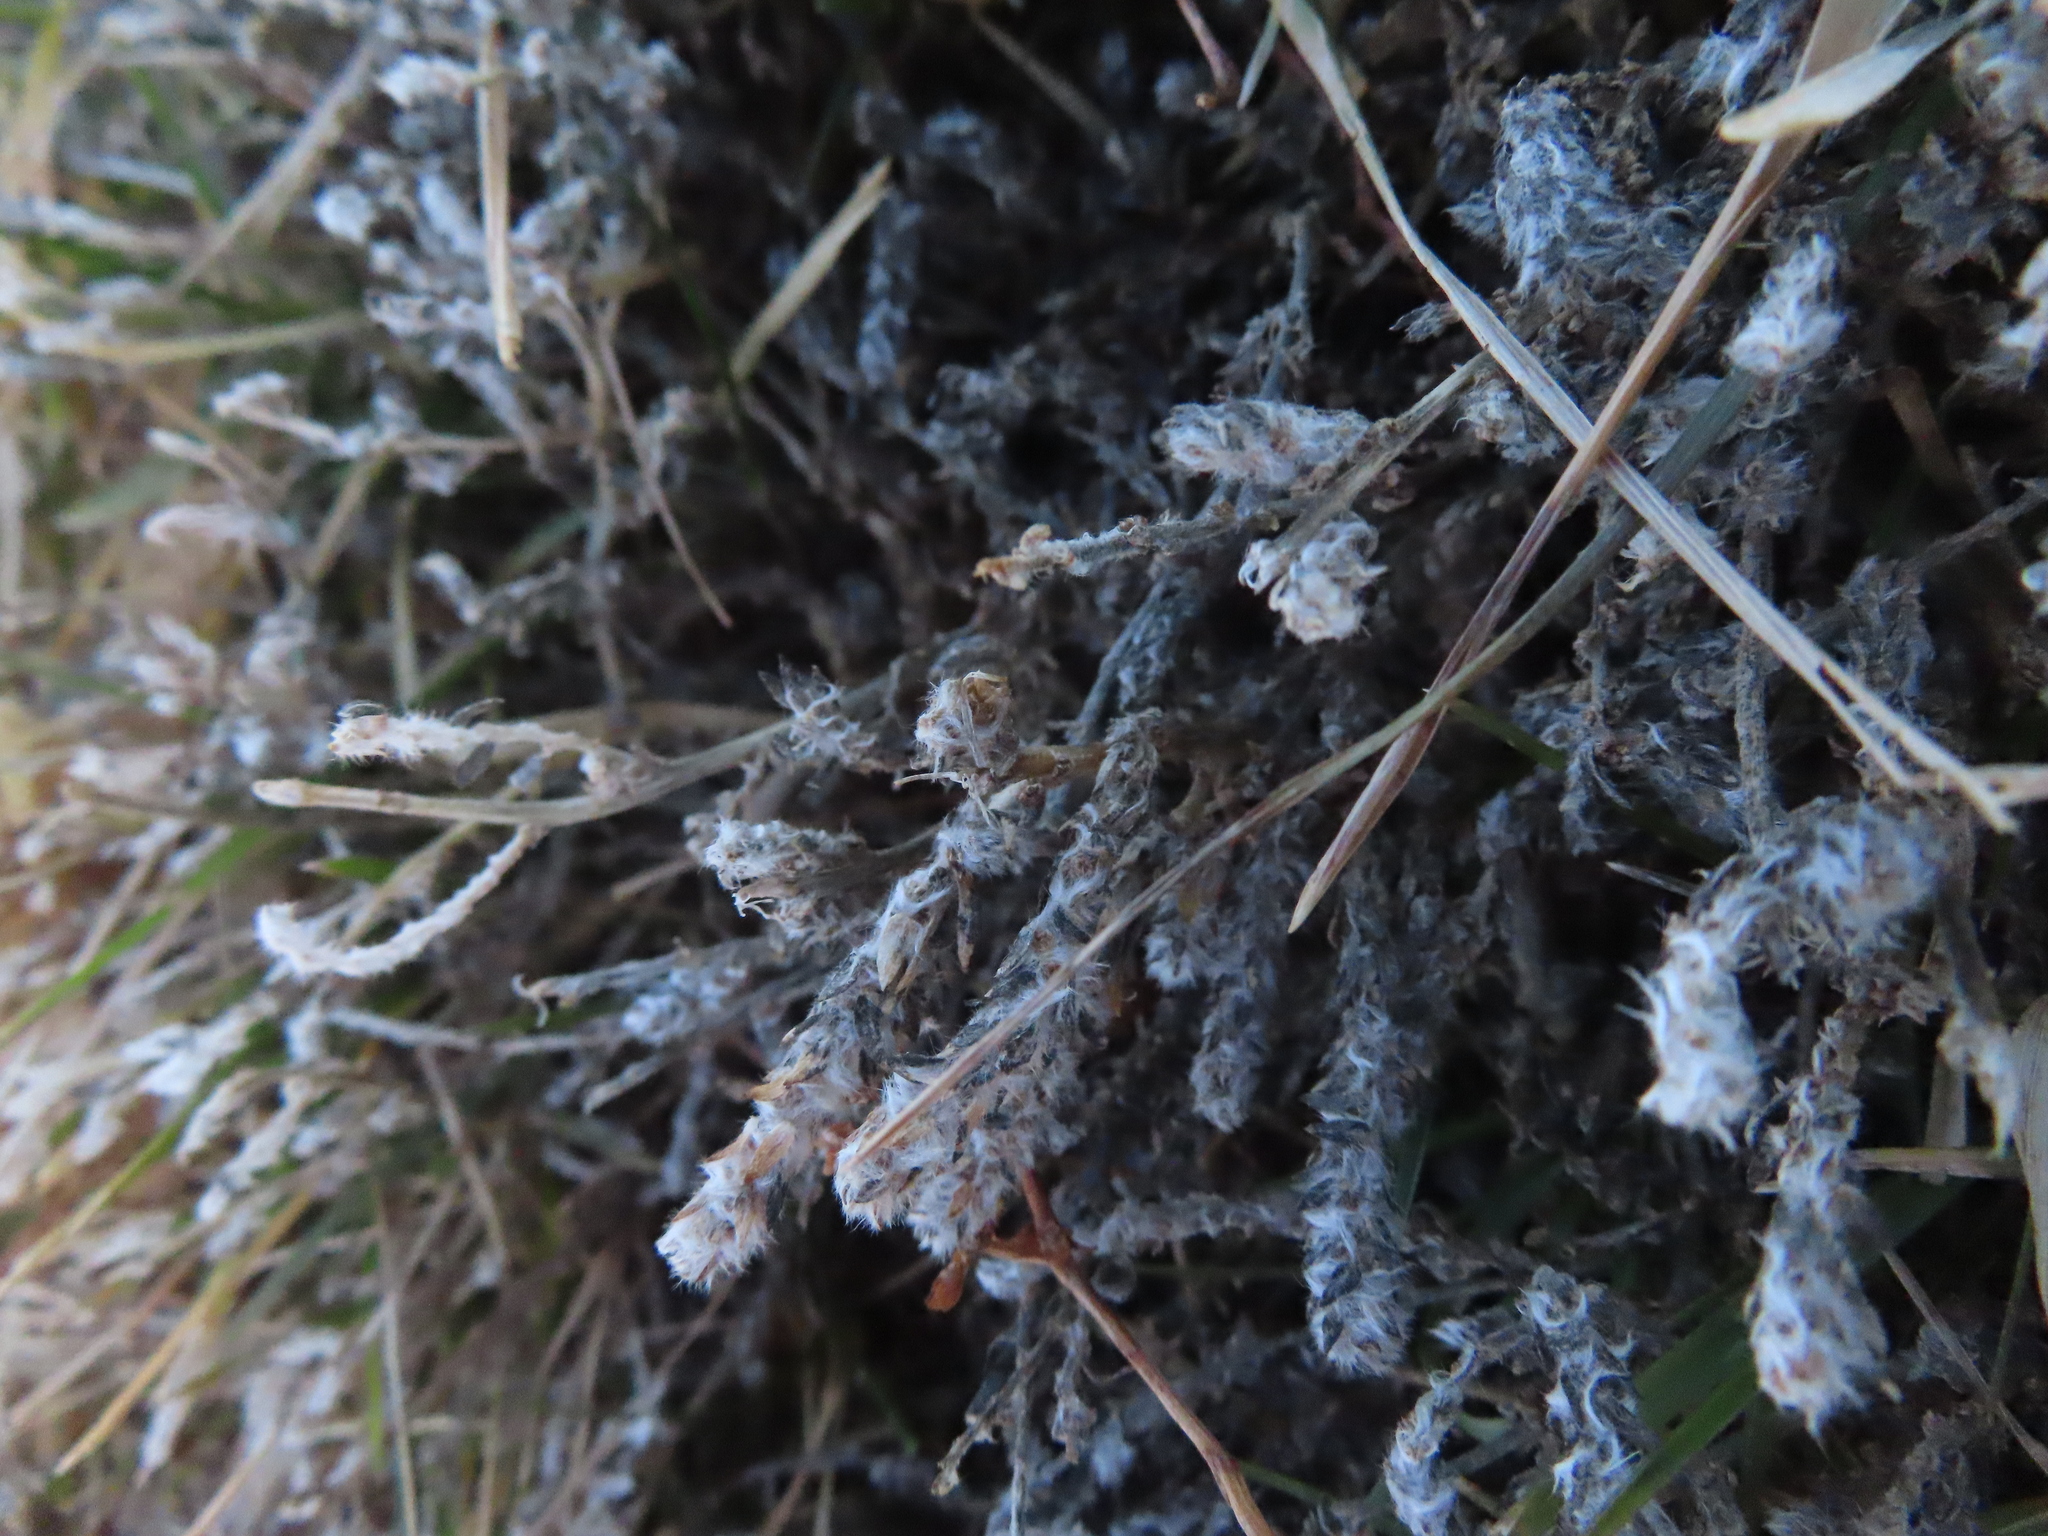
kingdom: Plantae
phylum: Tracheophyta
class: Magnoliopsida
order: Caryophyllales
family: Amaranthaceae
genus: Bassia
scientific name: Bassia scoparia
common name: Belvedere
